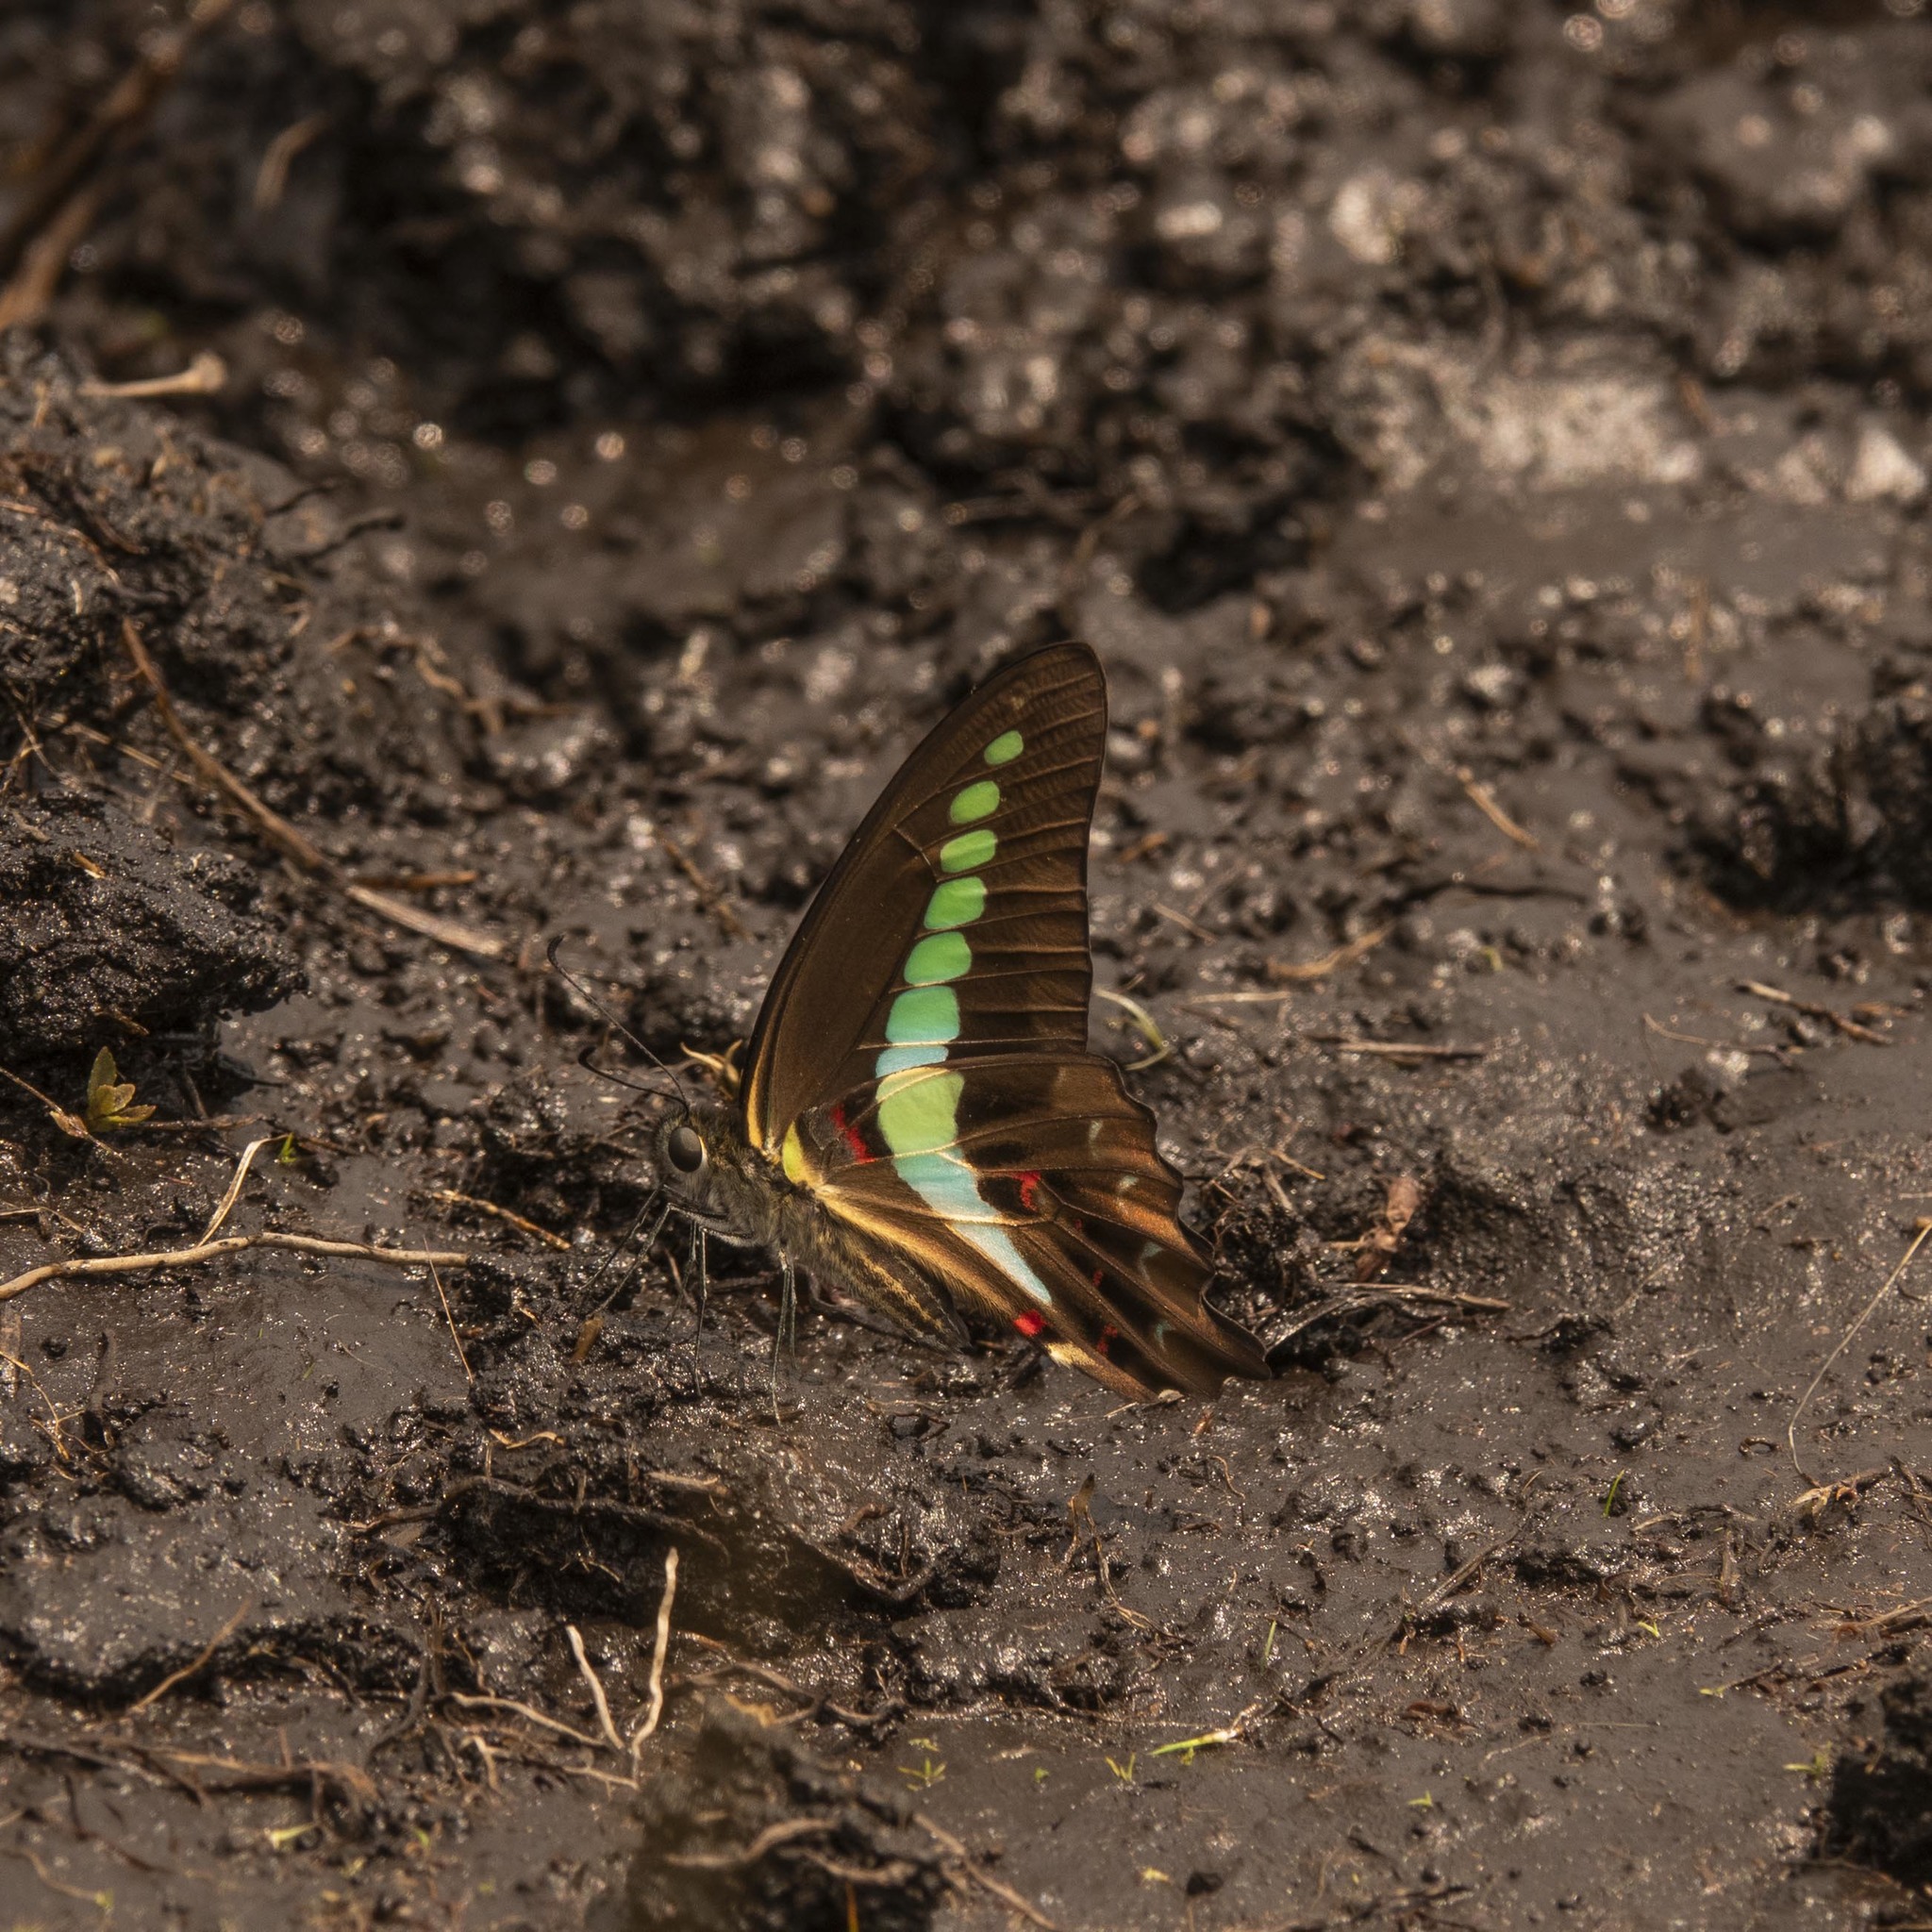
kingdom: Animalia
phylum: Arthropoda
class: Insecta
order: Lepidoptera
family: Papilionidae
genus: Graphium
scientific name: Graphium
